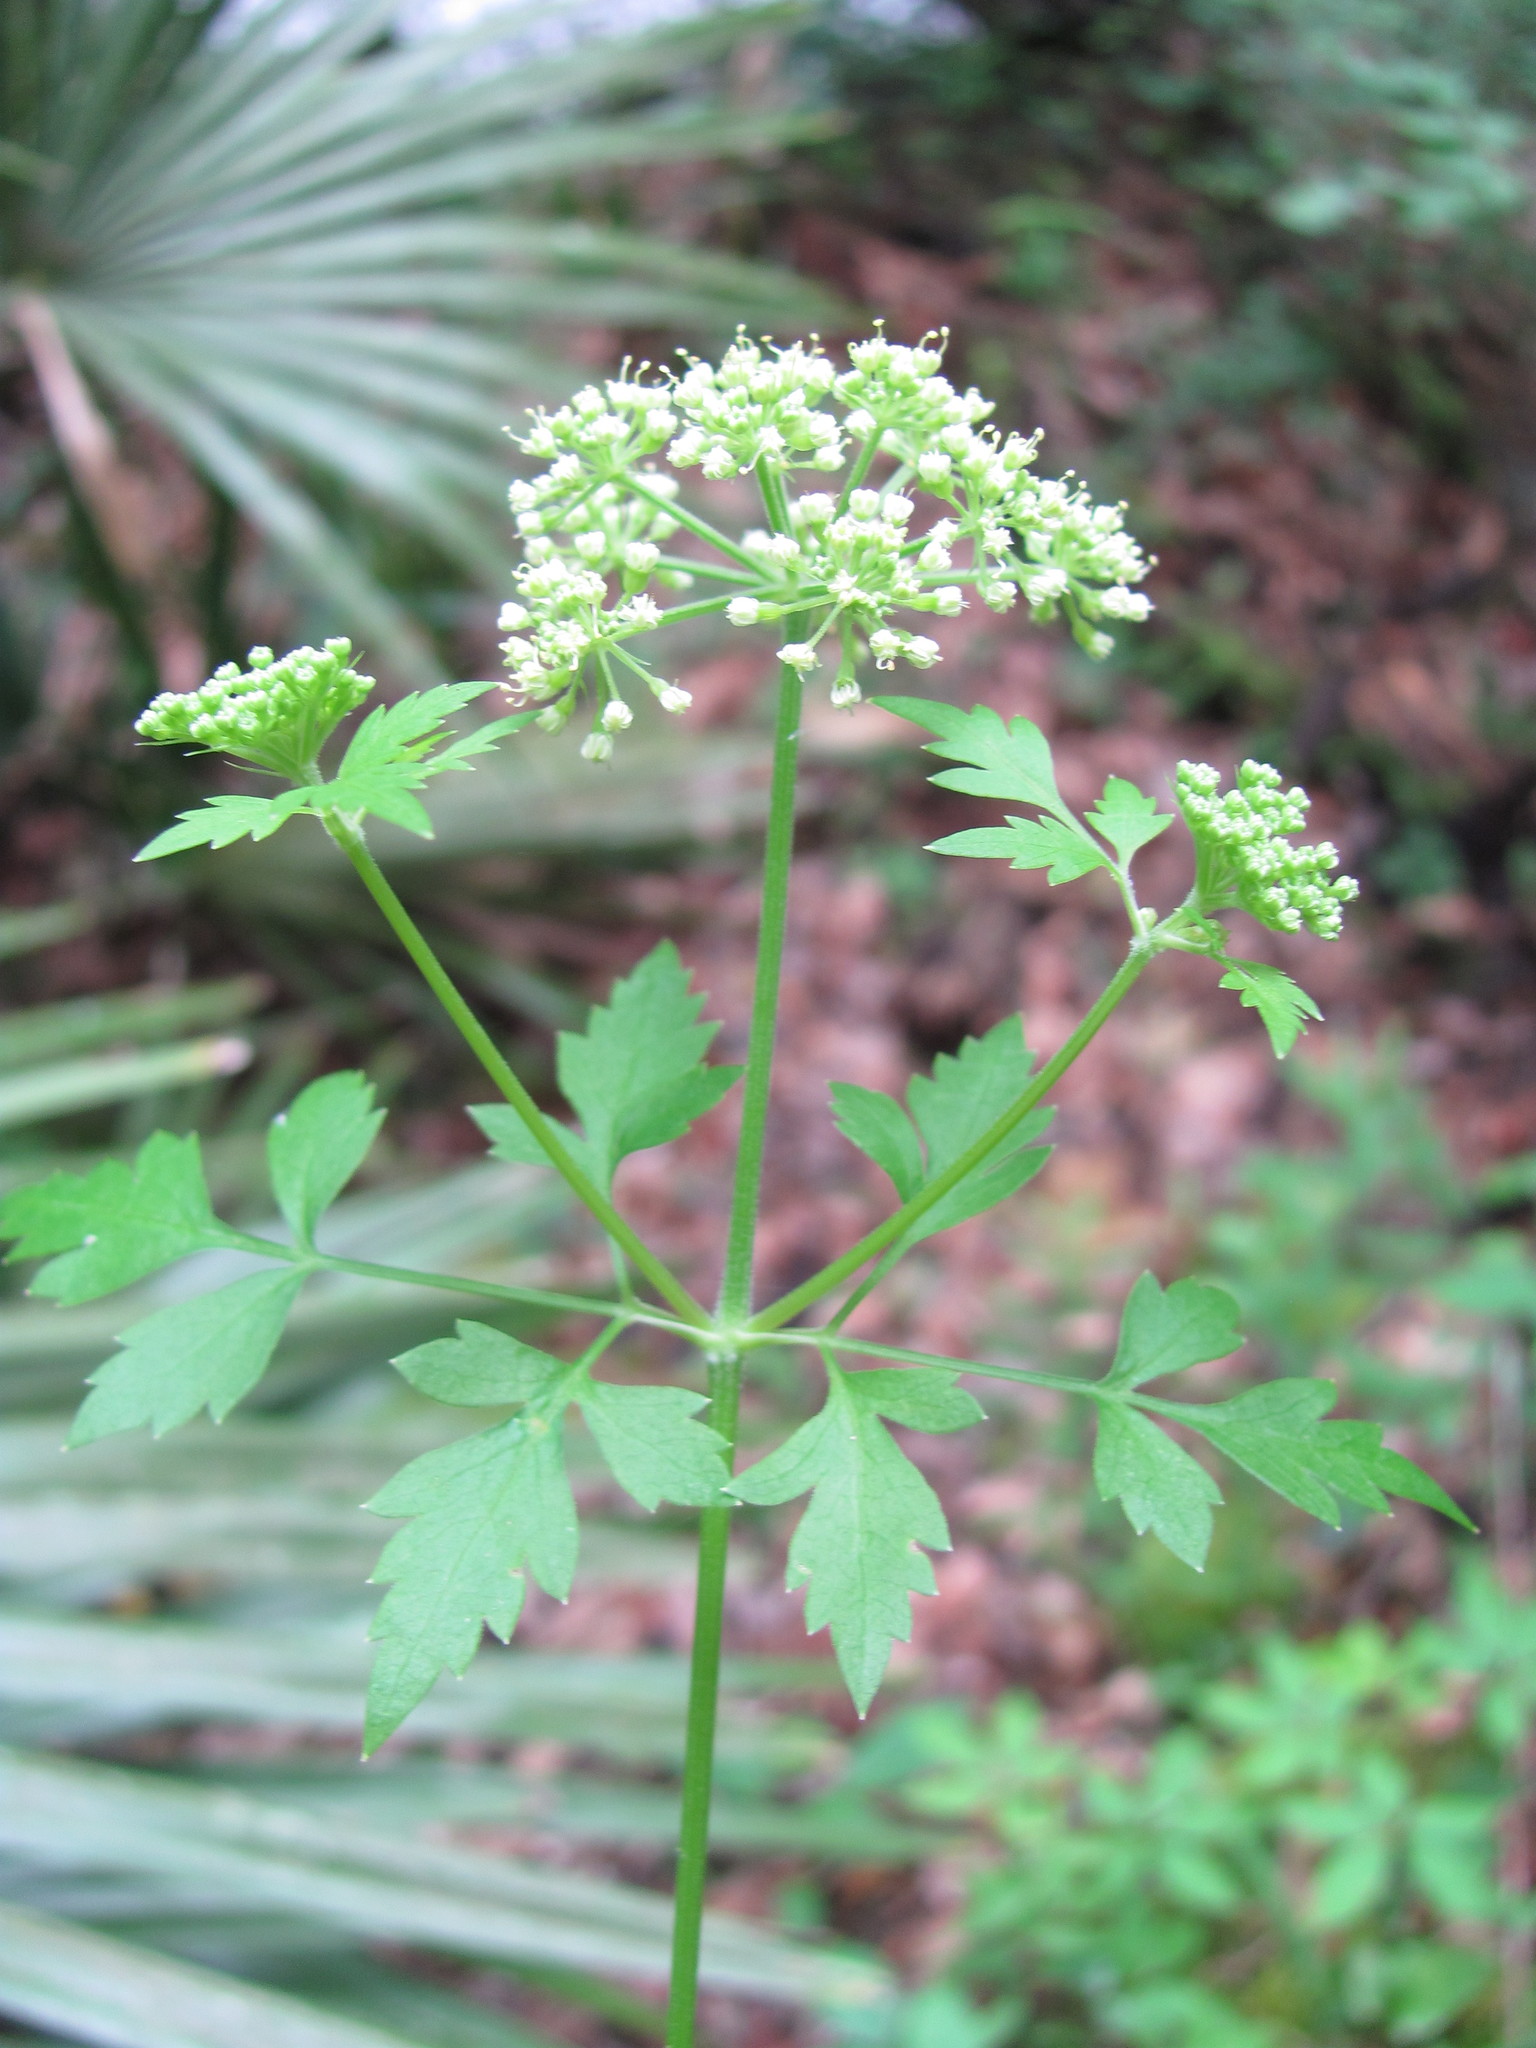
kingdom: Plantae
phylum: Tracheophyta
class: Magnoliopsida
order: Apiales
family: Apiaceae
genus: Thaspium
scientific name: Thaspium barbinode
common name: Bearded meadow-parsnip
